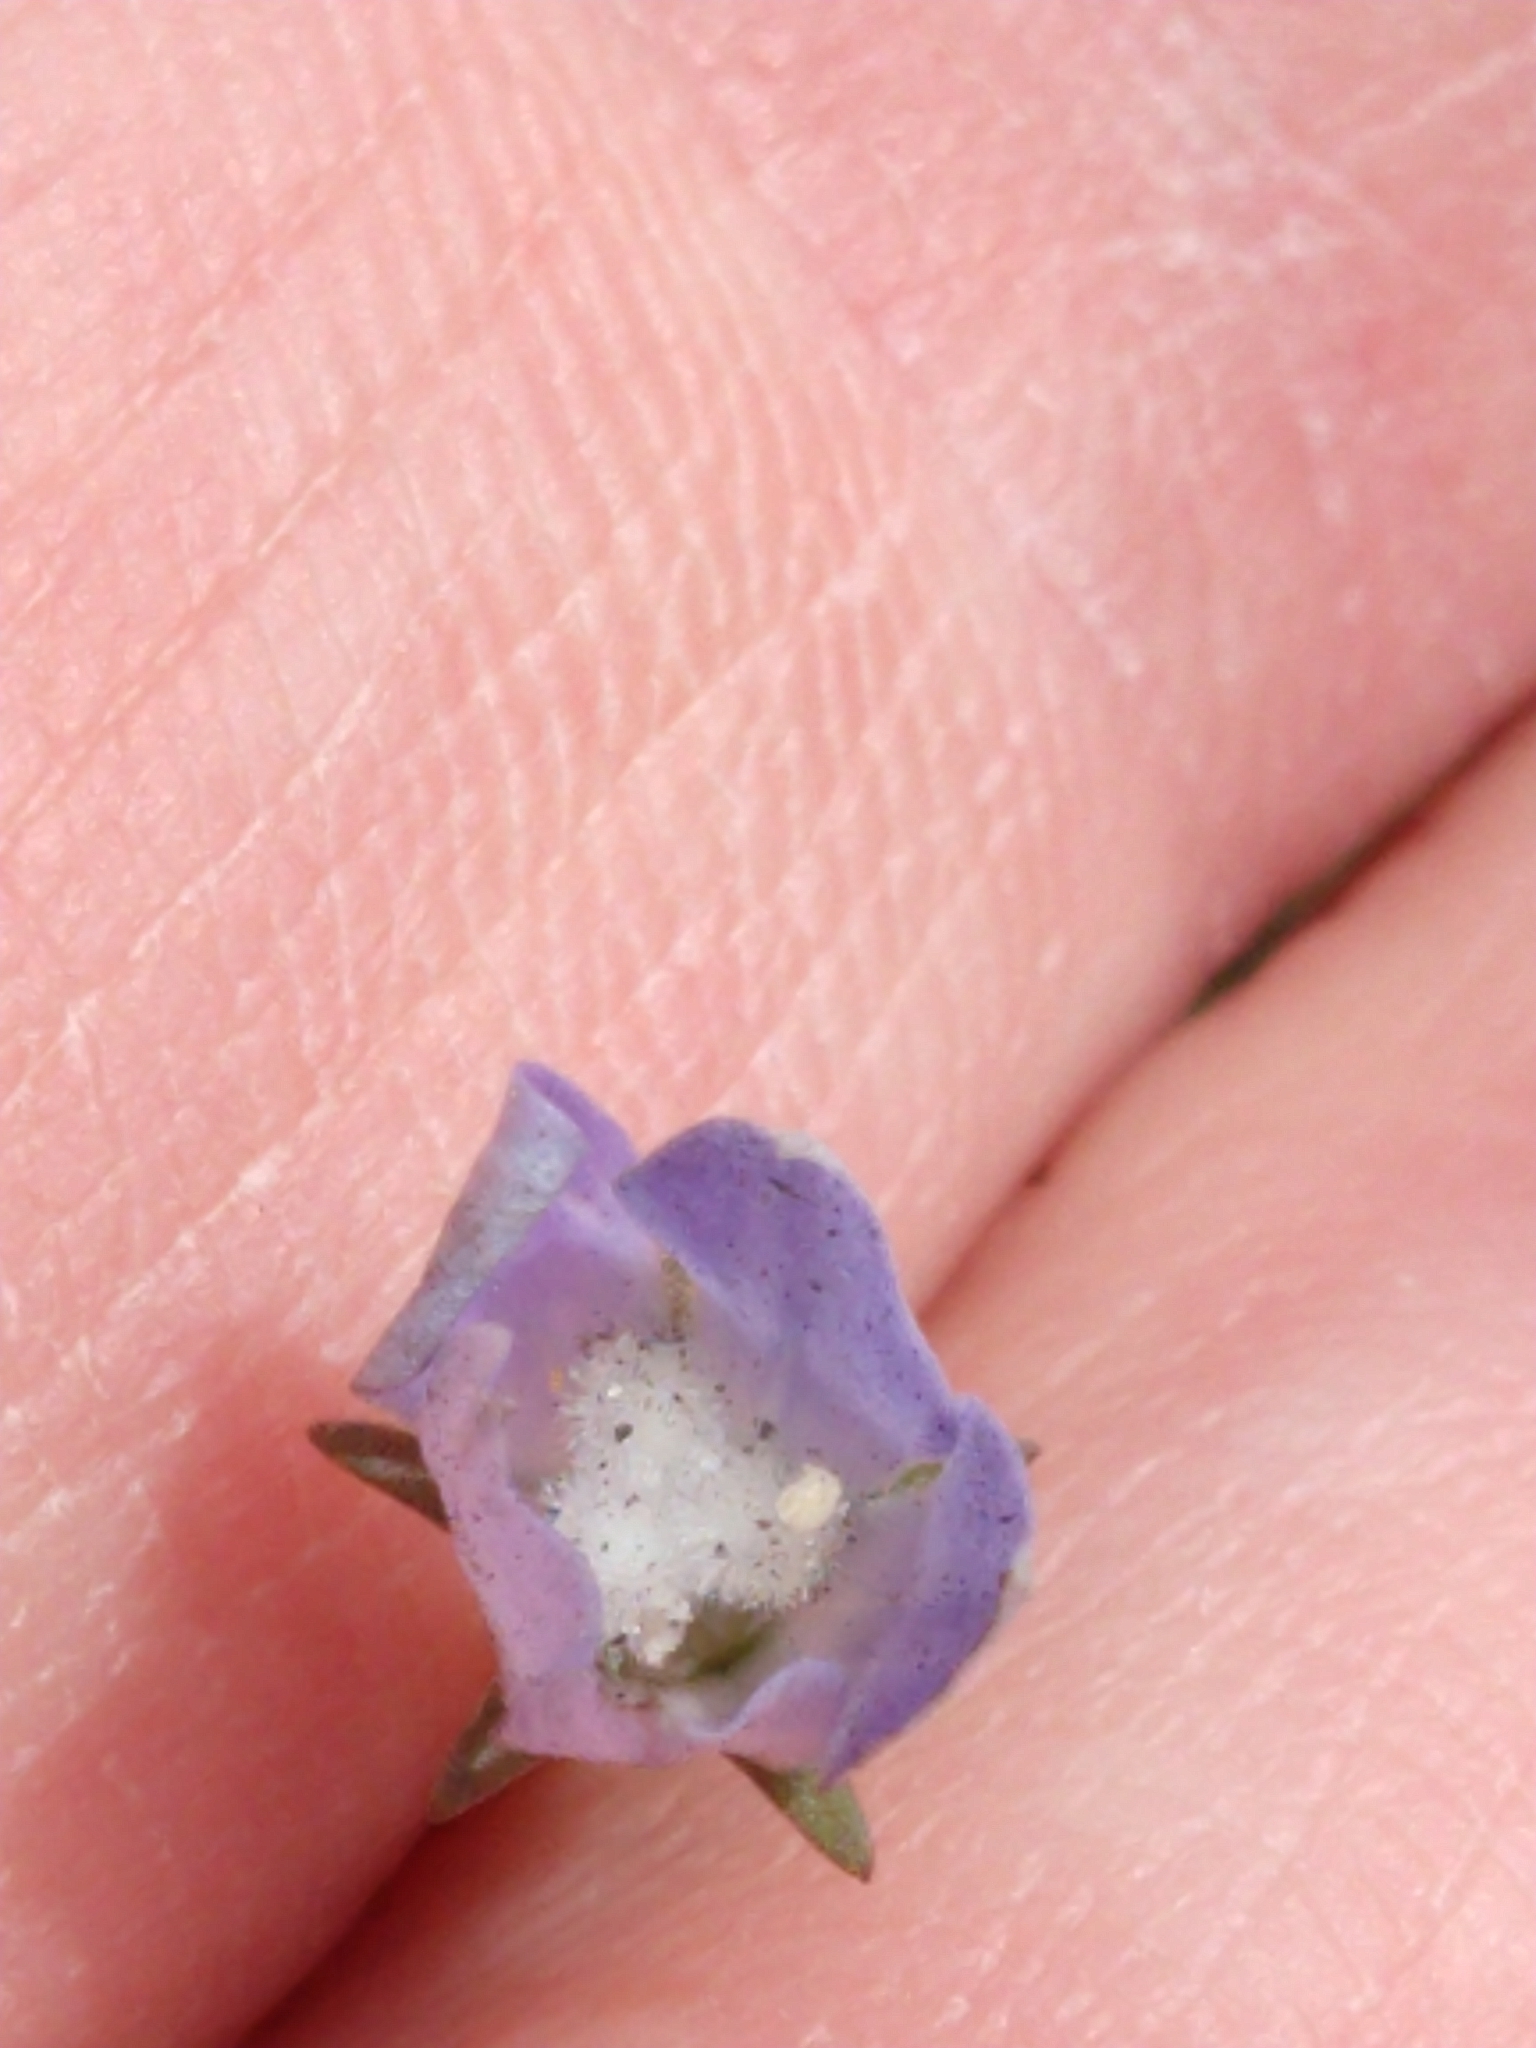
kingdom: Plantae
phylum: Tracheophyta
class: Magnoliopsida
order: Asterales
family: Campanulaceae
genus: Wahlenbergia
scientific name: Wahlenbergia marginata
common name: Southern rockbell
